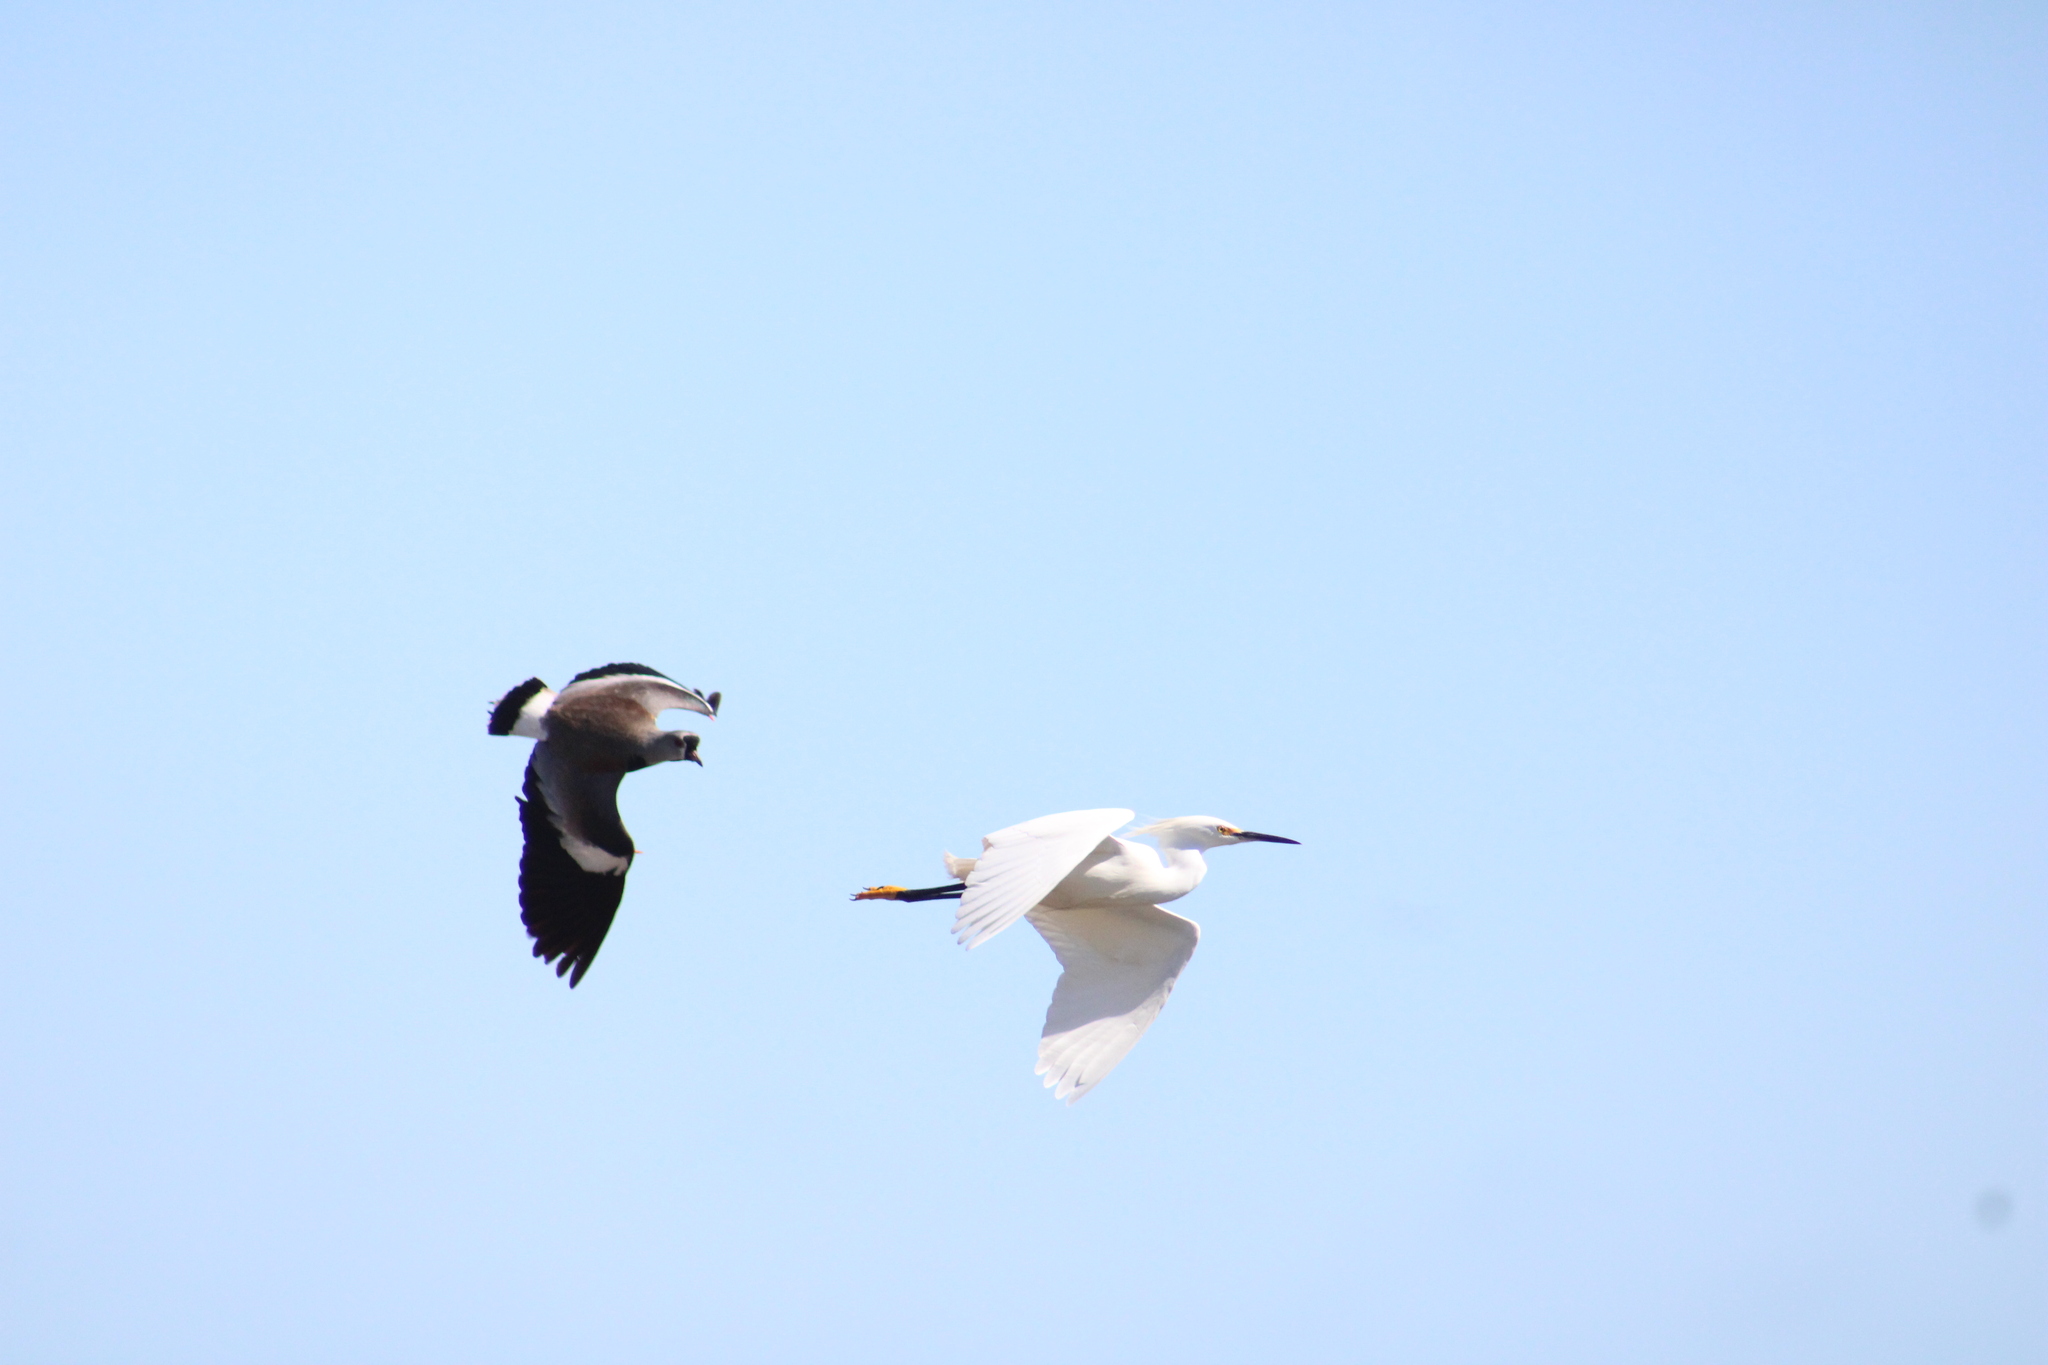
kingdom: Animalia
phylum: Chordata
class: Aves
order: Pelecaniformes
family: Ardeidae
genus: Egretta
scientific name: Egretta thula
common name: Snowy egret
